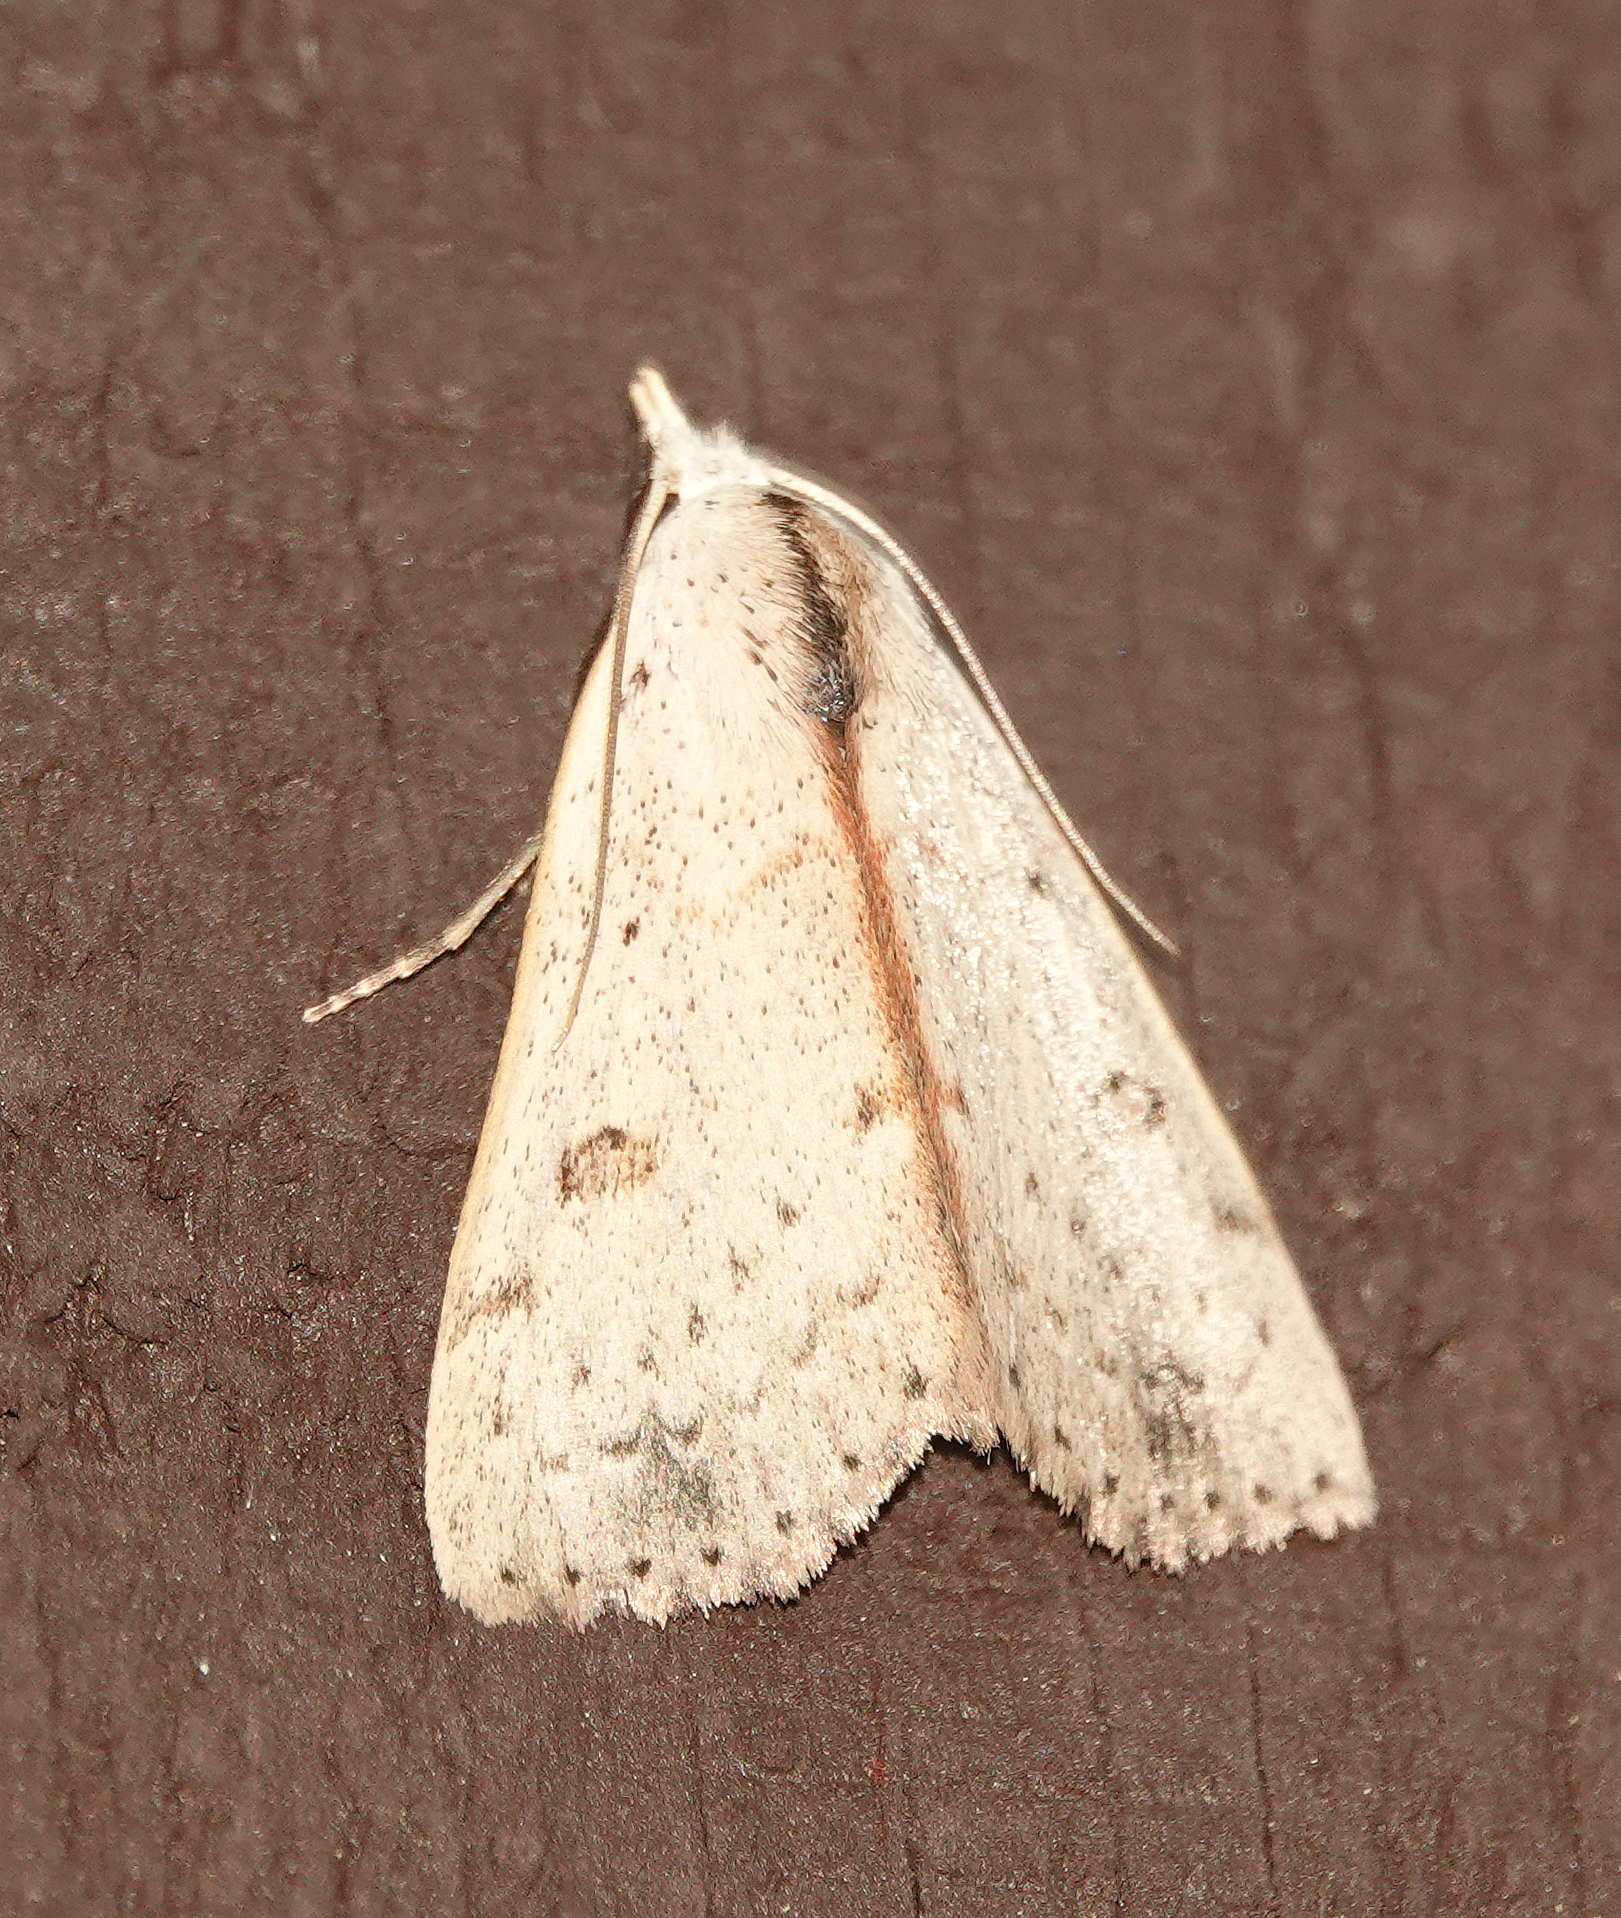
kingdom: Animalia
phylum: Arthropoda
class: Insecta
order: Lepidoptera
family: Erebidae
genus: Scolecocampa
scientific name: Scolecocampa liburna
